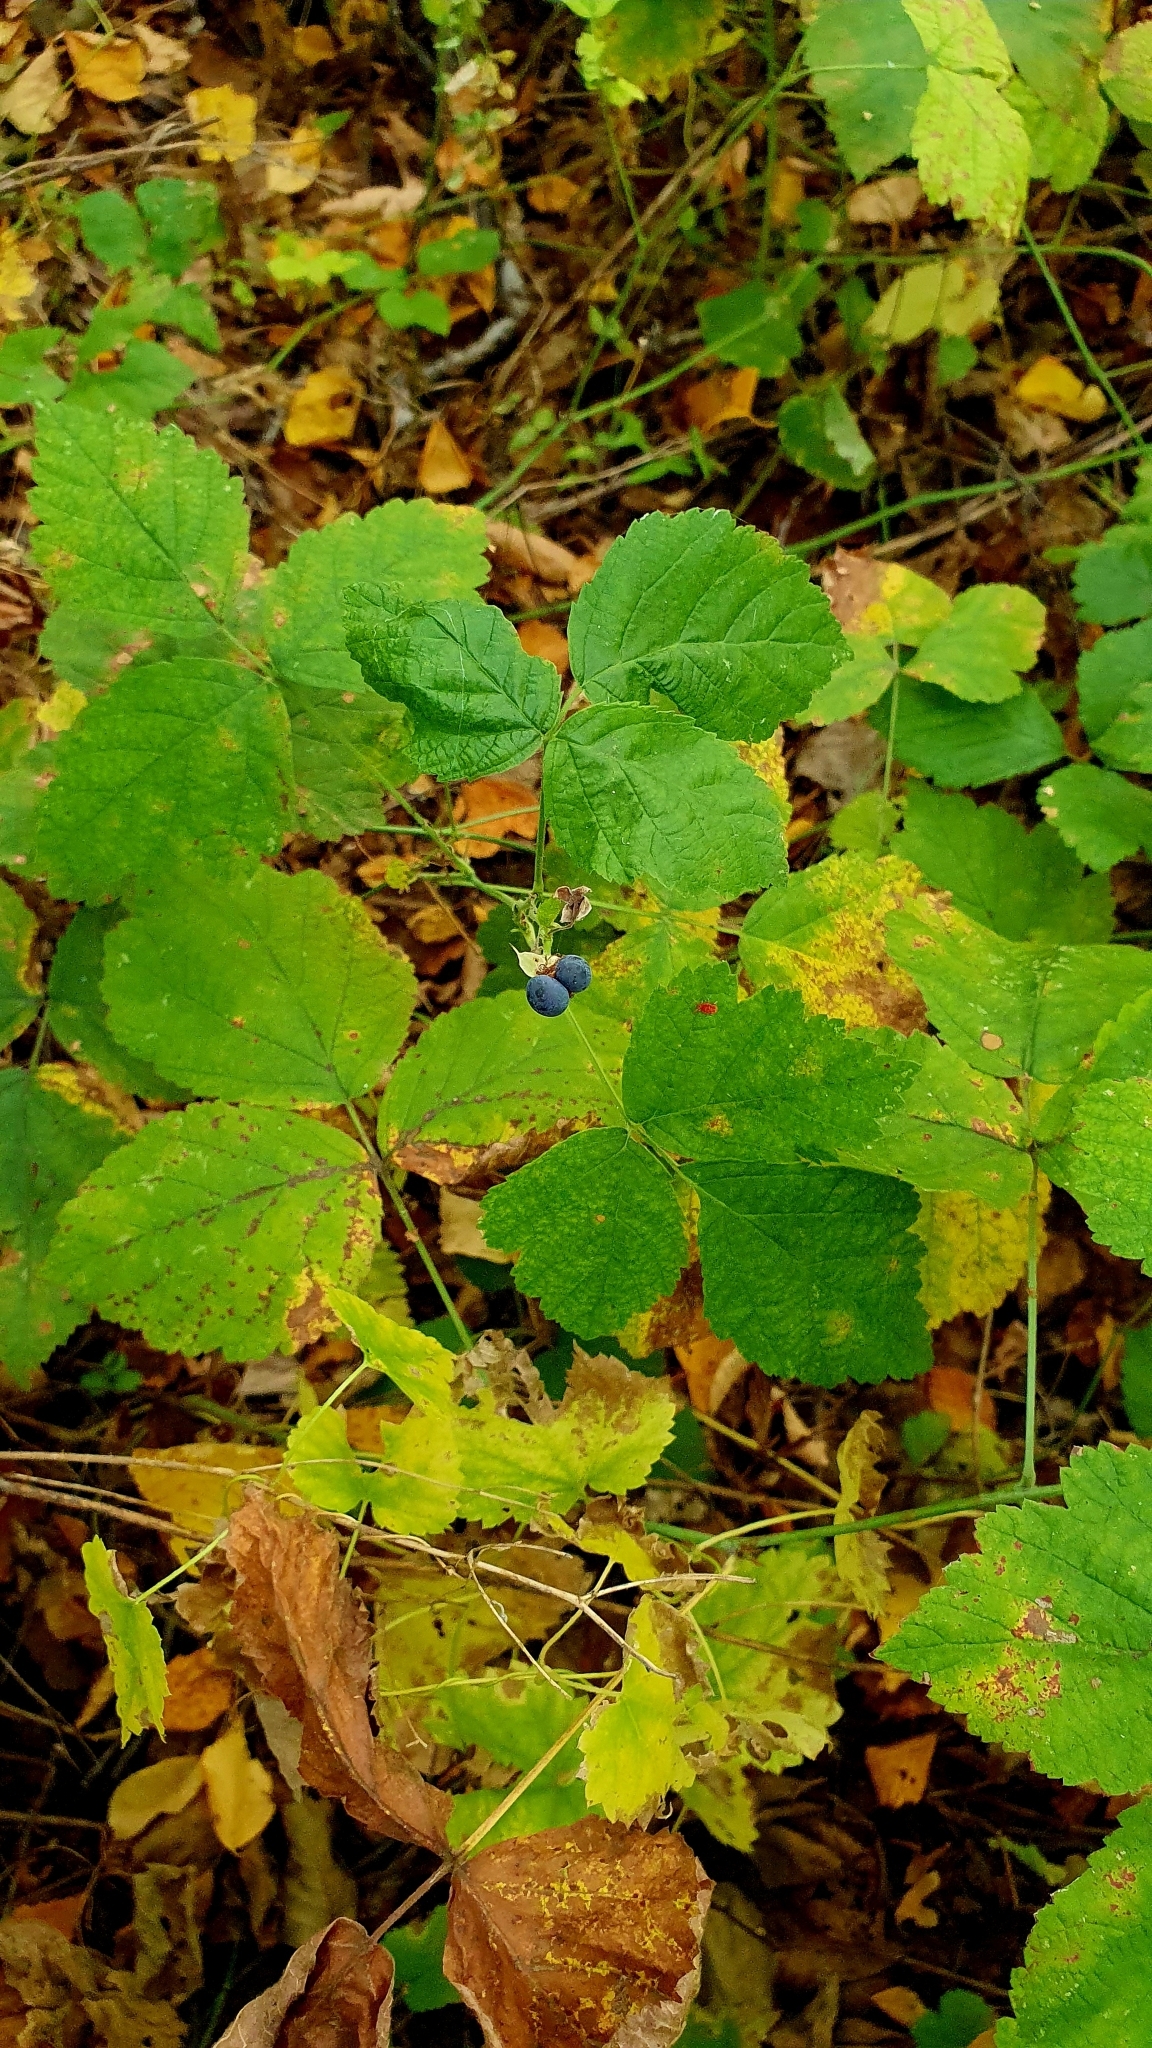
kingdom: Plantae
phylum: Tracheophyta
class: Magnoliopsida
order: Rosales
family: Rosaceae
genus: Rubus
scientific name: Rubus caesius
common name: Dewberry
